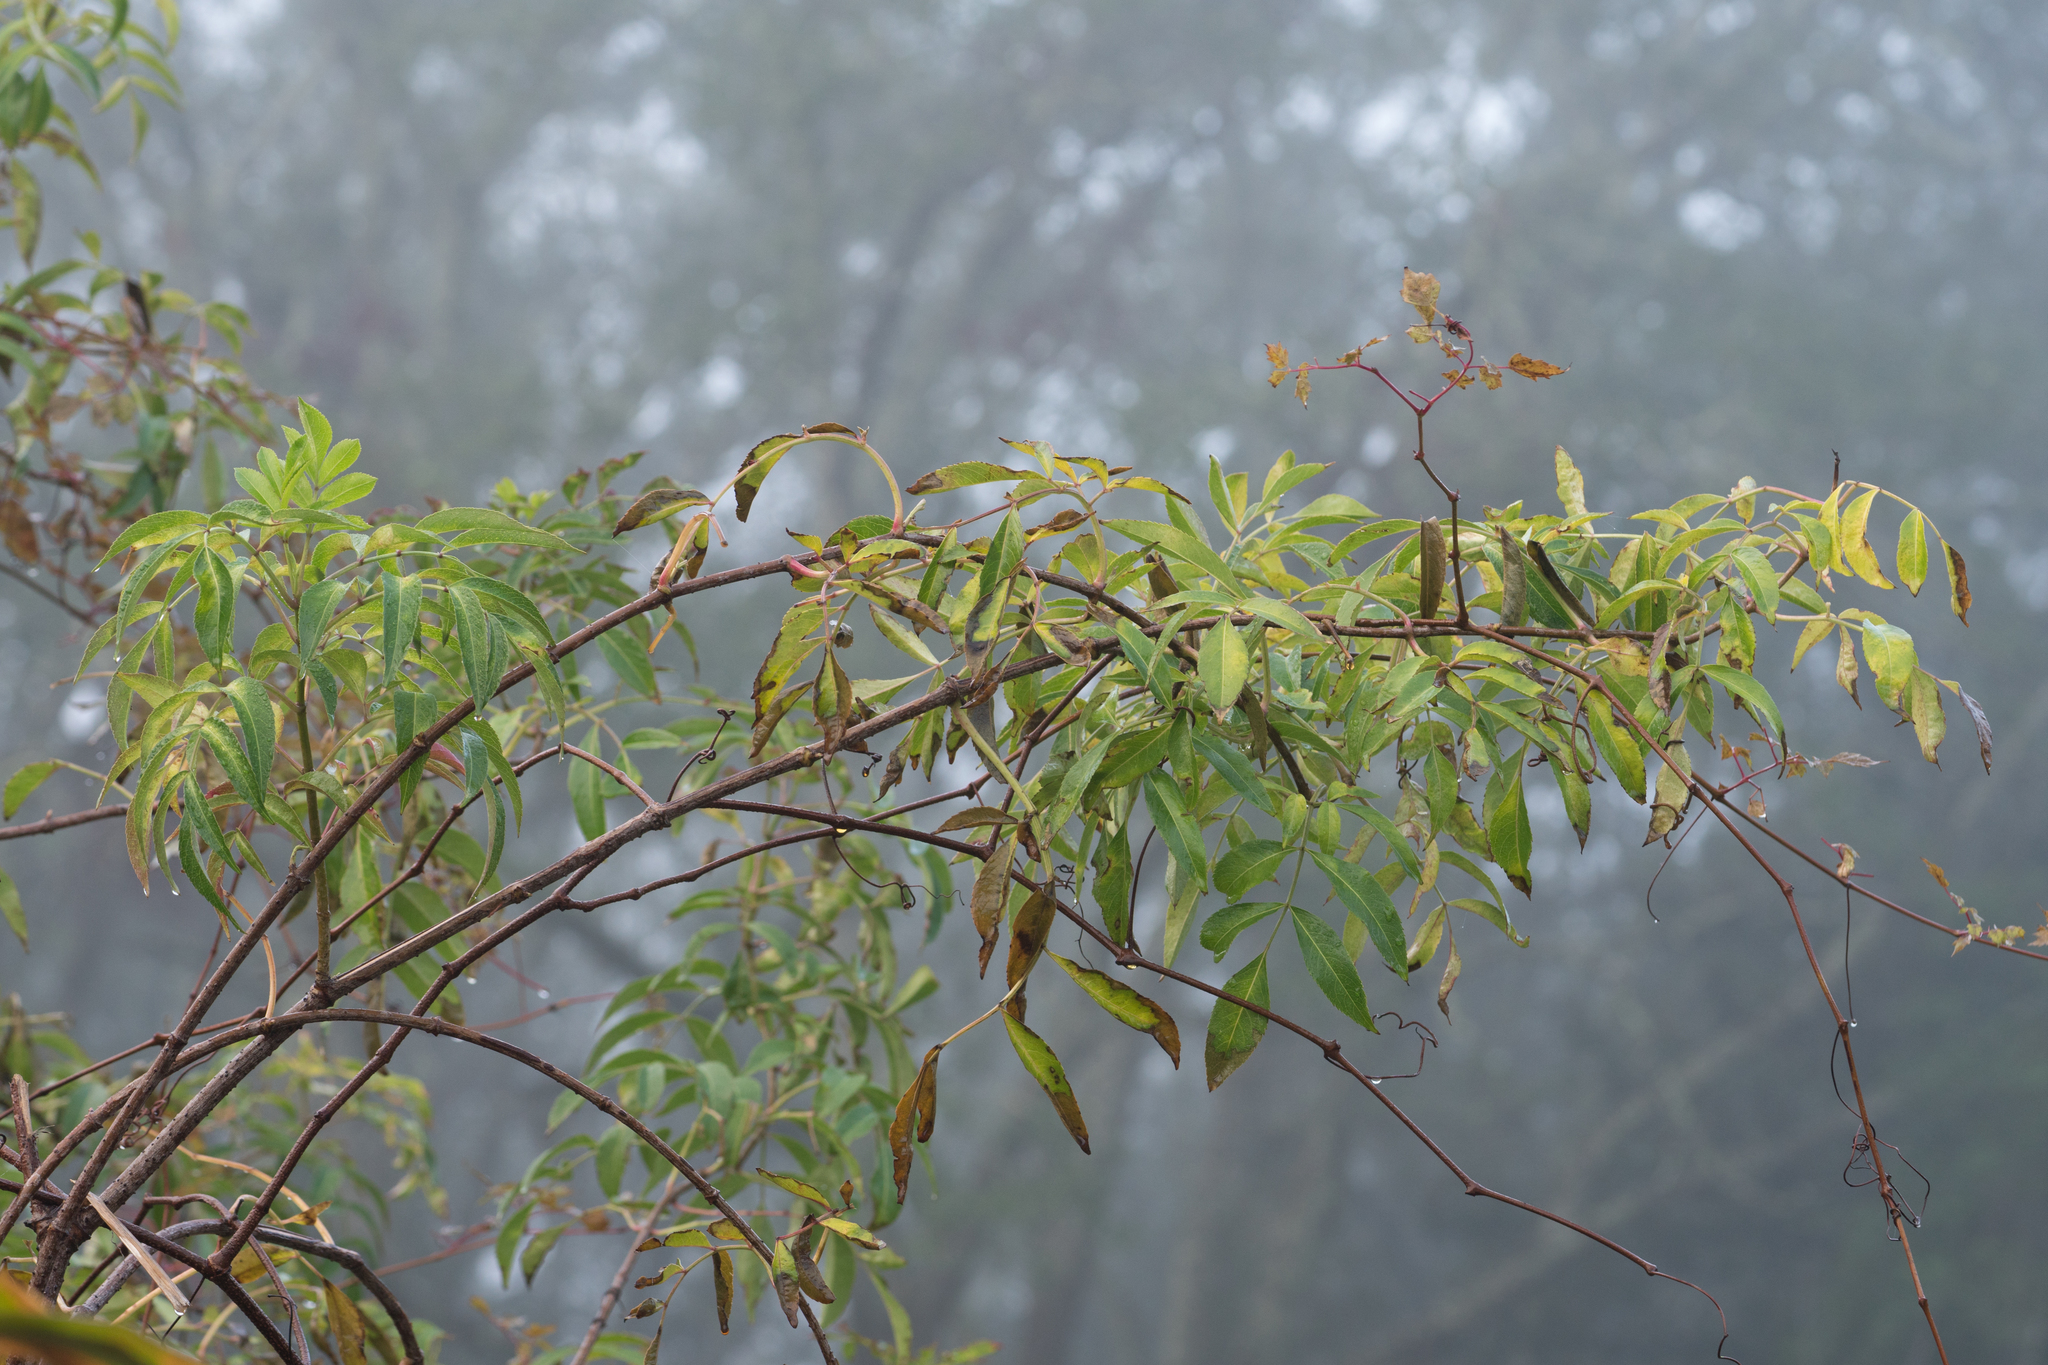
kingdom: Plantae
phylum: Tracheophyta
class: Magnoliopsida
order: Dipsacales
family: Viburnaceae
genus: Sambucus
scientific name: Sambucus canadensis
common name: American elder
